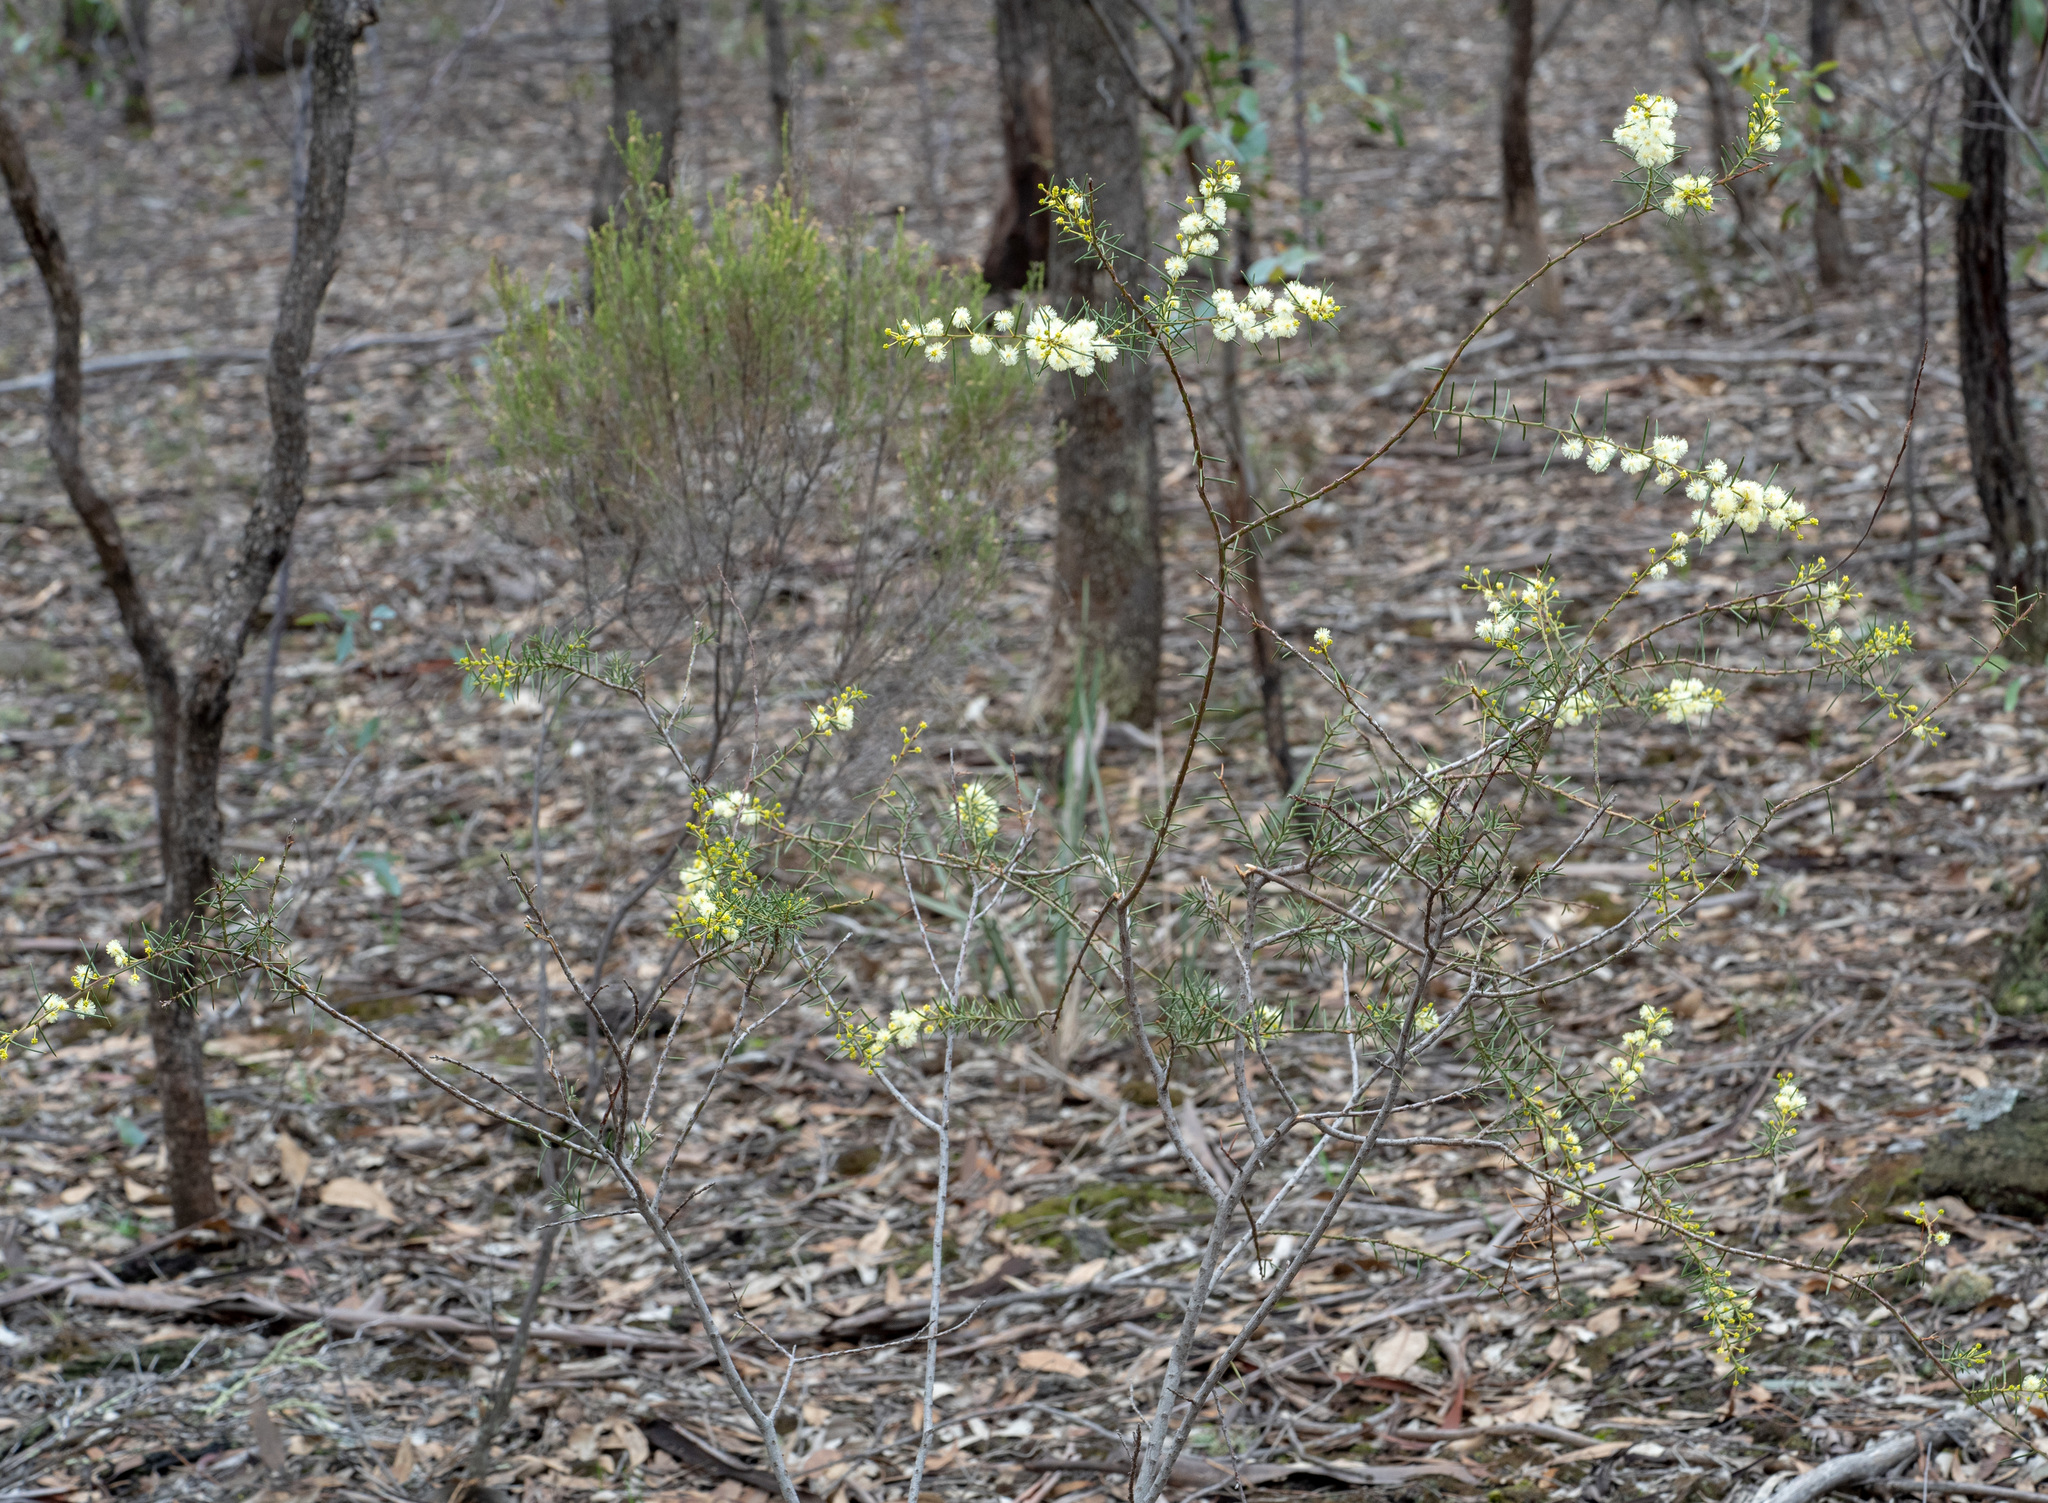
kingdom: Plantae
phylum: Tracheophyta
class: Magnoliopsida
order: Fabales
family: Fabaceae
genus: Acacia
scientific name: Acacia genistifolia
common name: Early wattle
